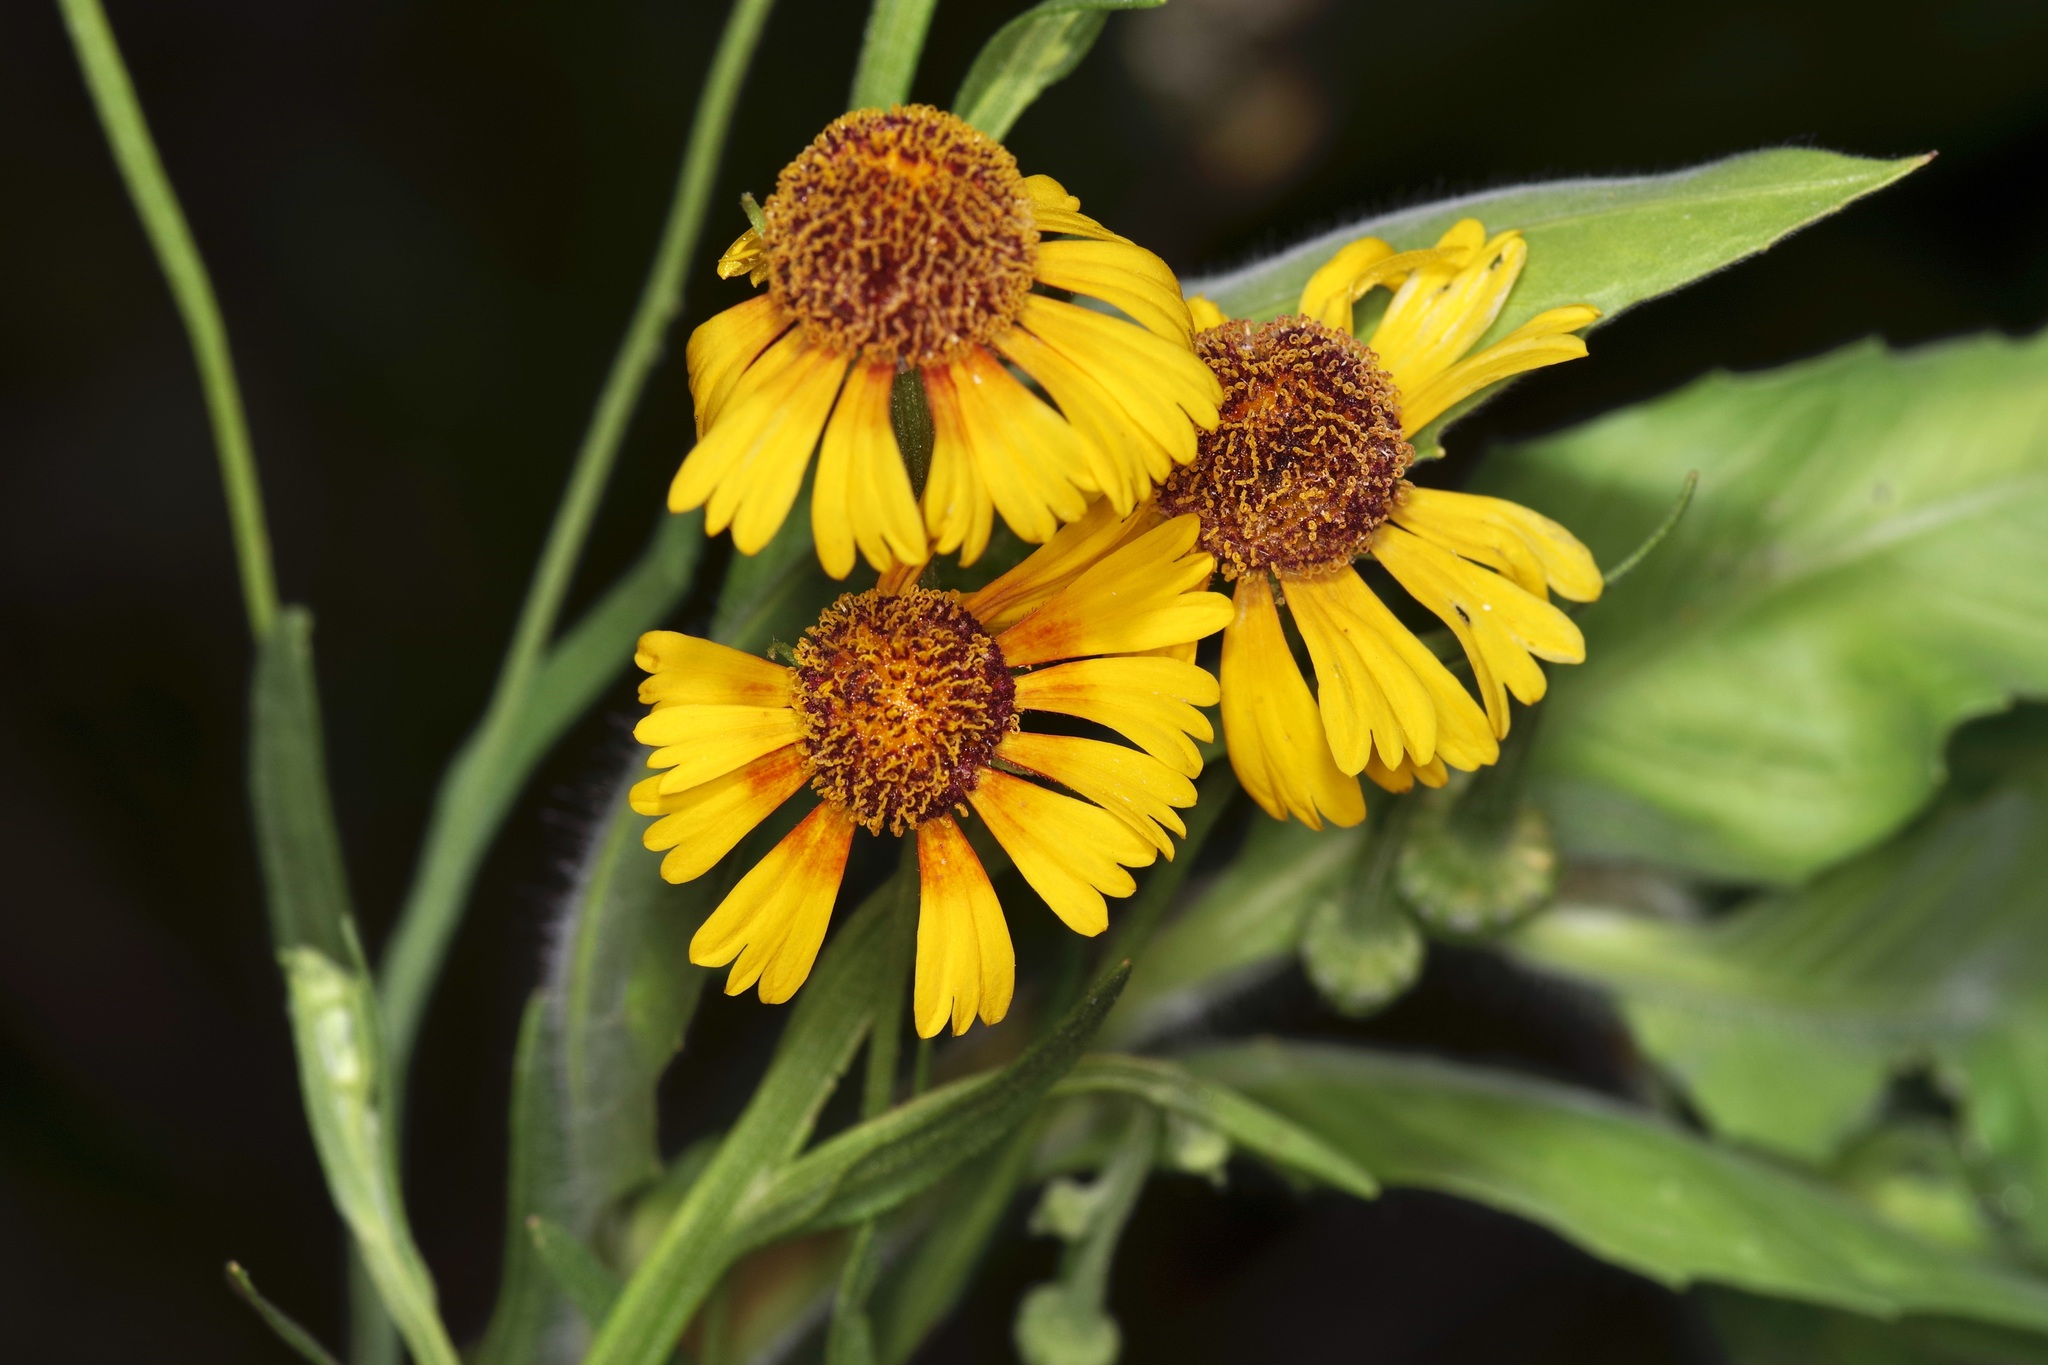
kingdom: Plantae
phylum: Tracheophyta
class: Magnoliopsida
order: Asterales
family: Asteraceae
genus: Helenium
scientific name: Helenium elegans
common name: Pretty sneezeweed
